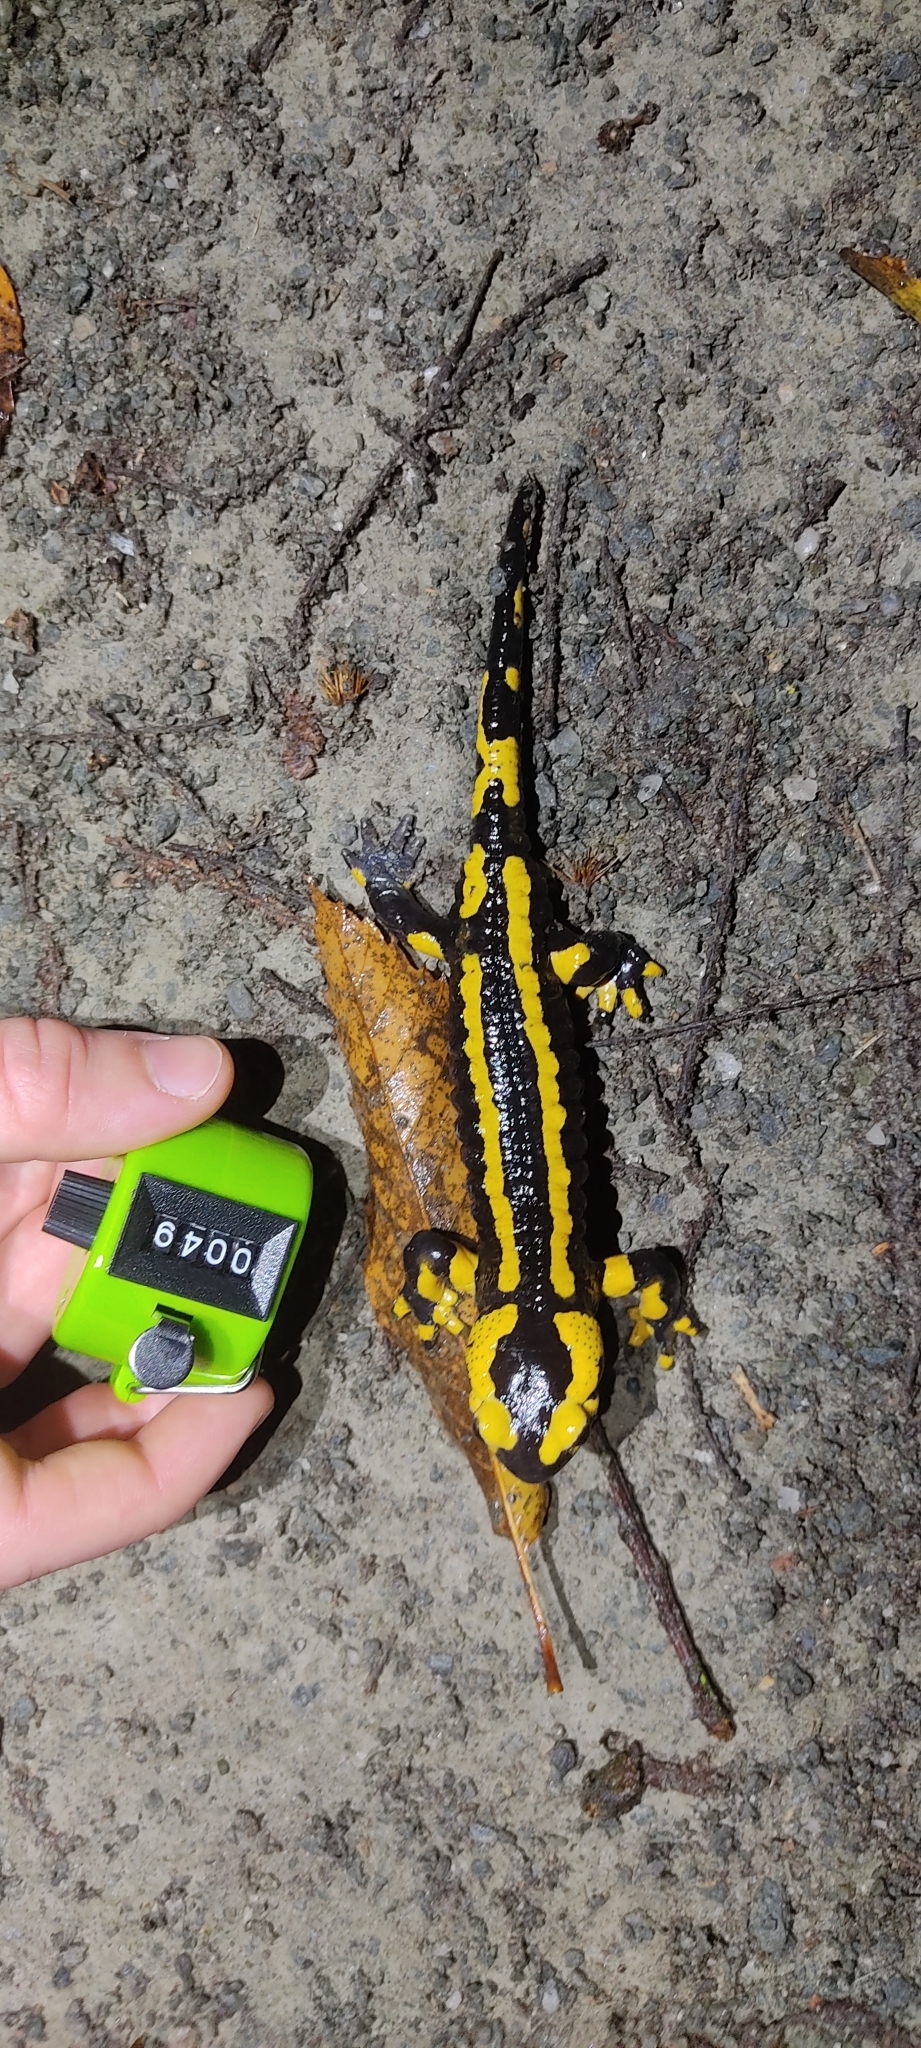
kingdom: Animalia
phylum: Chordata
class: Amphibia
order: Caudata
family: Salamandridae
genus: Salamandra
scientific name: Salamandra salamandra
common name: Fire salamander
